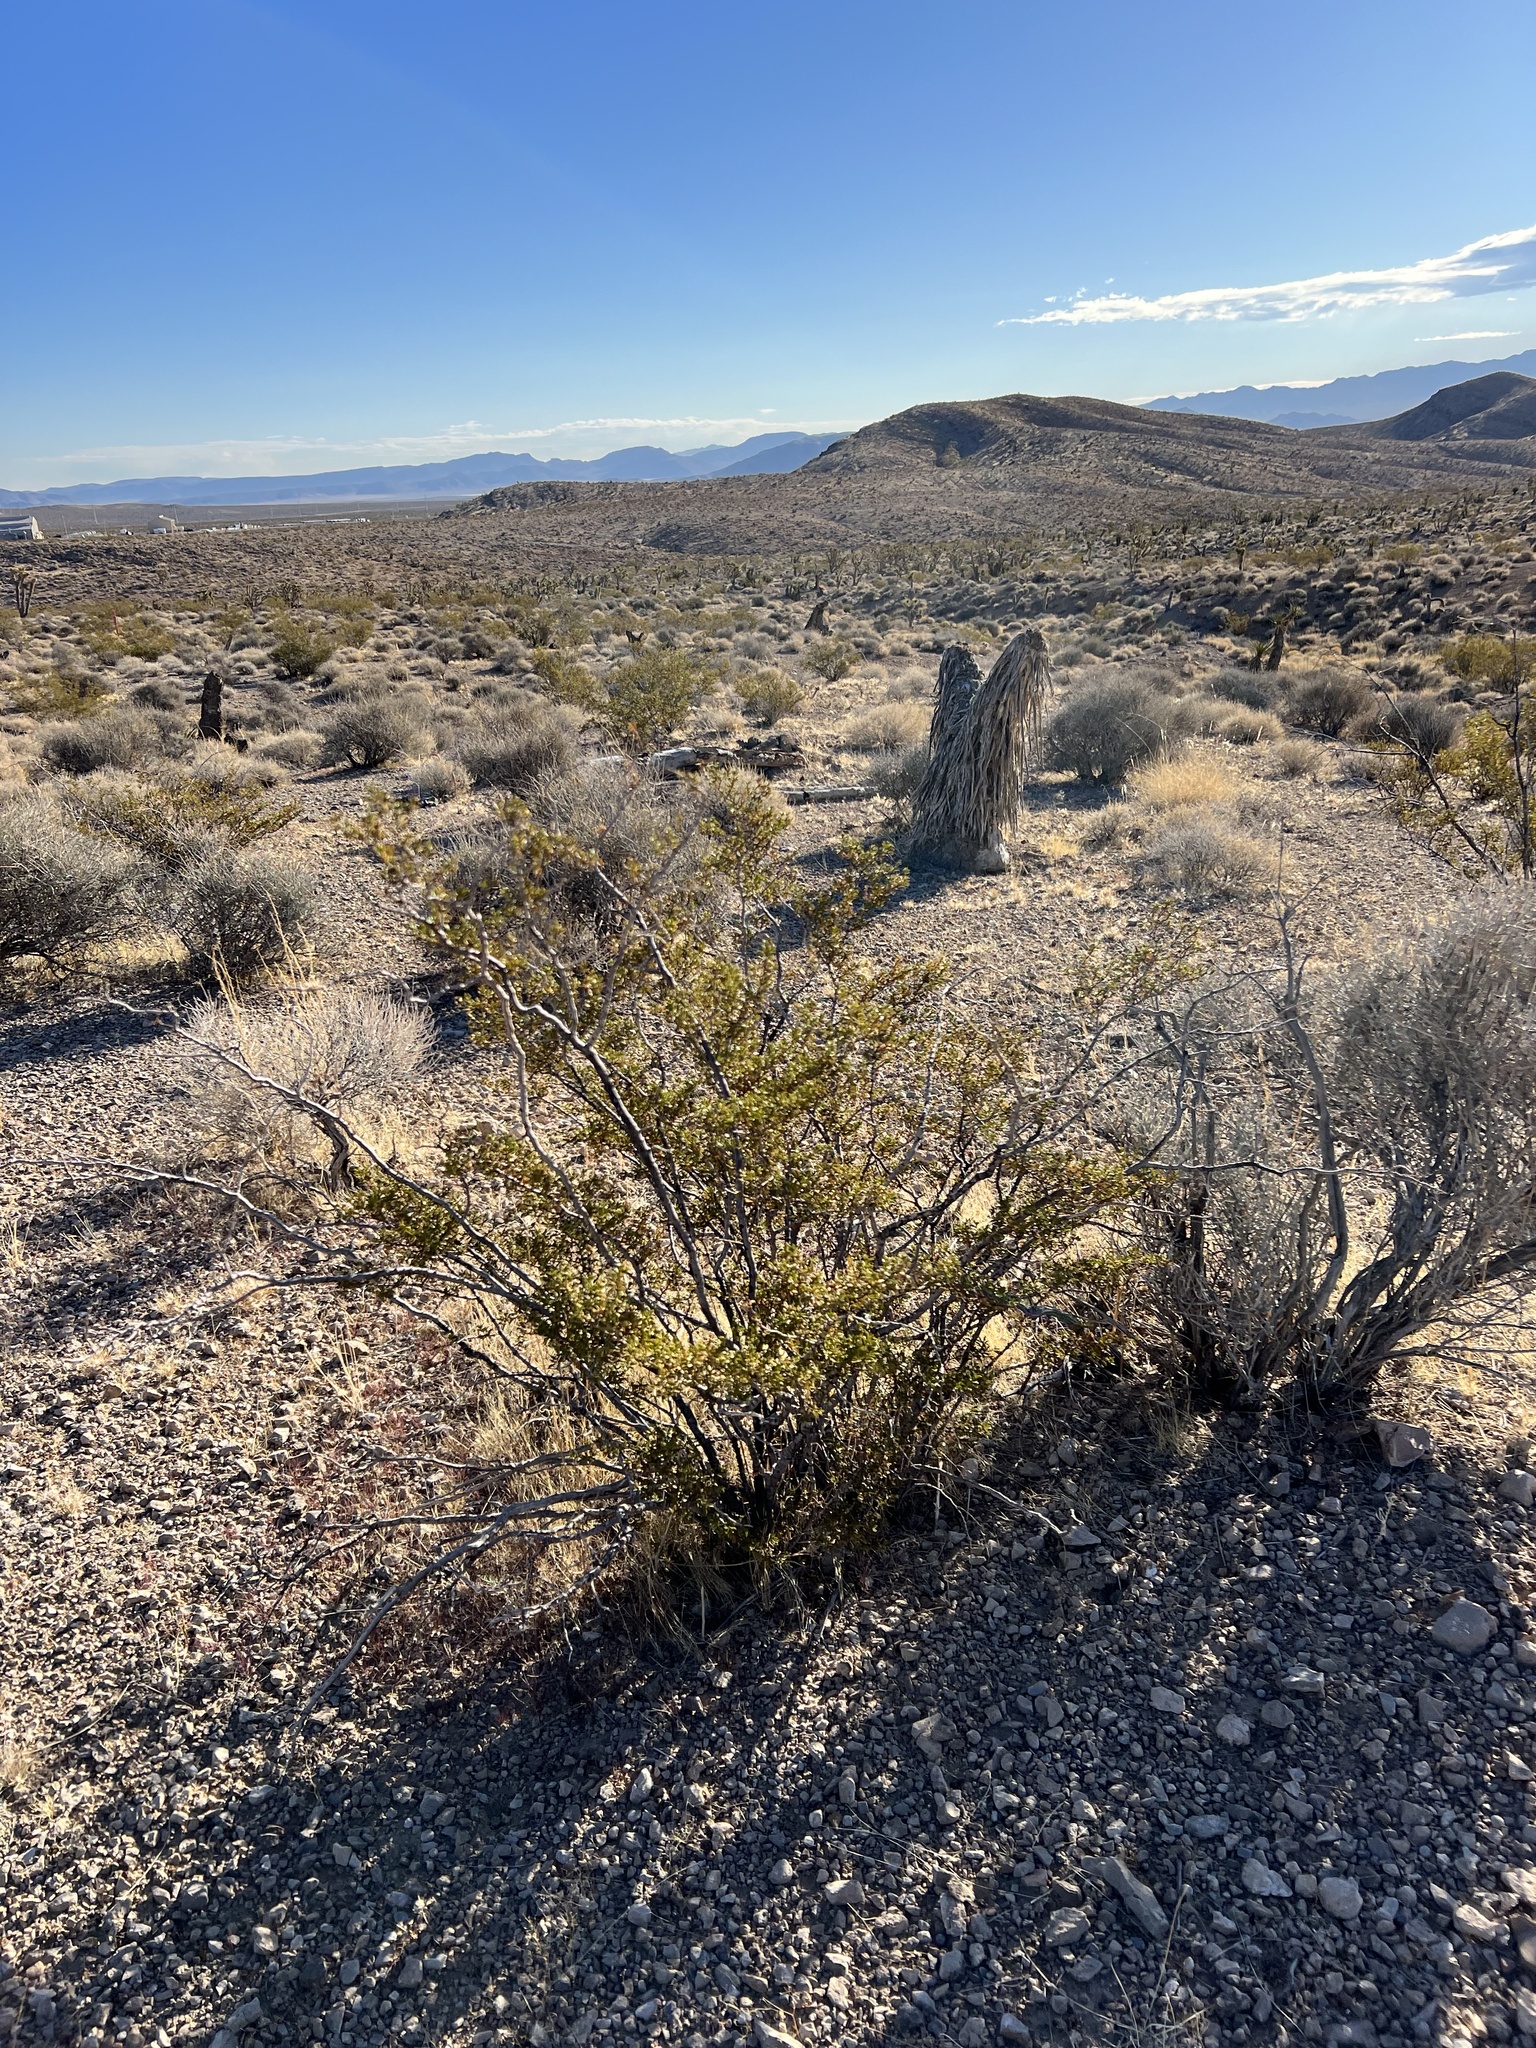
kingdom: Plantae
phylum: Tracheophyta
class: Magnoliopsida
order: Zygophyllales
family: Zygophyllaceae
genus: Larrea
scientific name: Larrea tridentata
